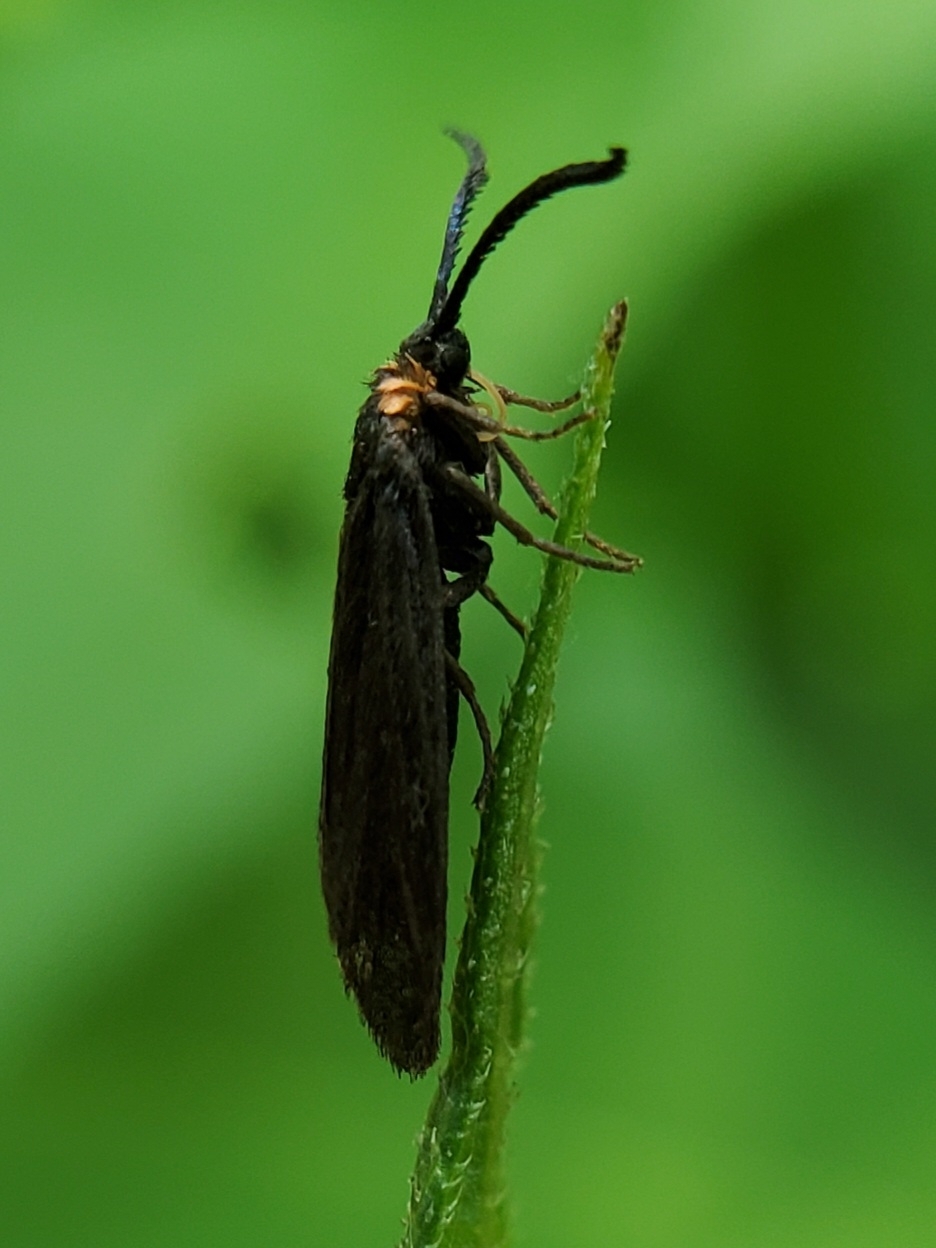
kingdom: Animalia
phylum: Arthropoda
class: Insecta
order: Lepidoptera
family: Zygaenidae
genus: Acoloithus
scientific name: Acoloithus falsarius
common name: Clemens' false skeletonizer
